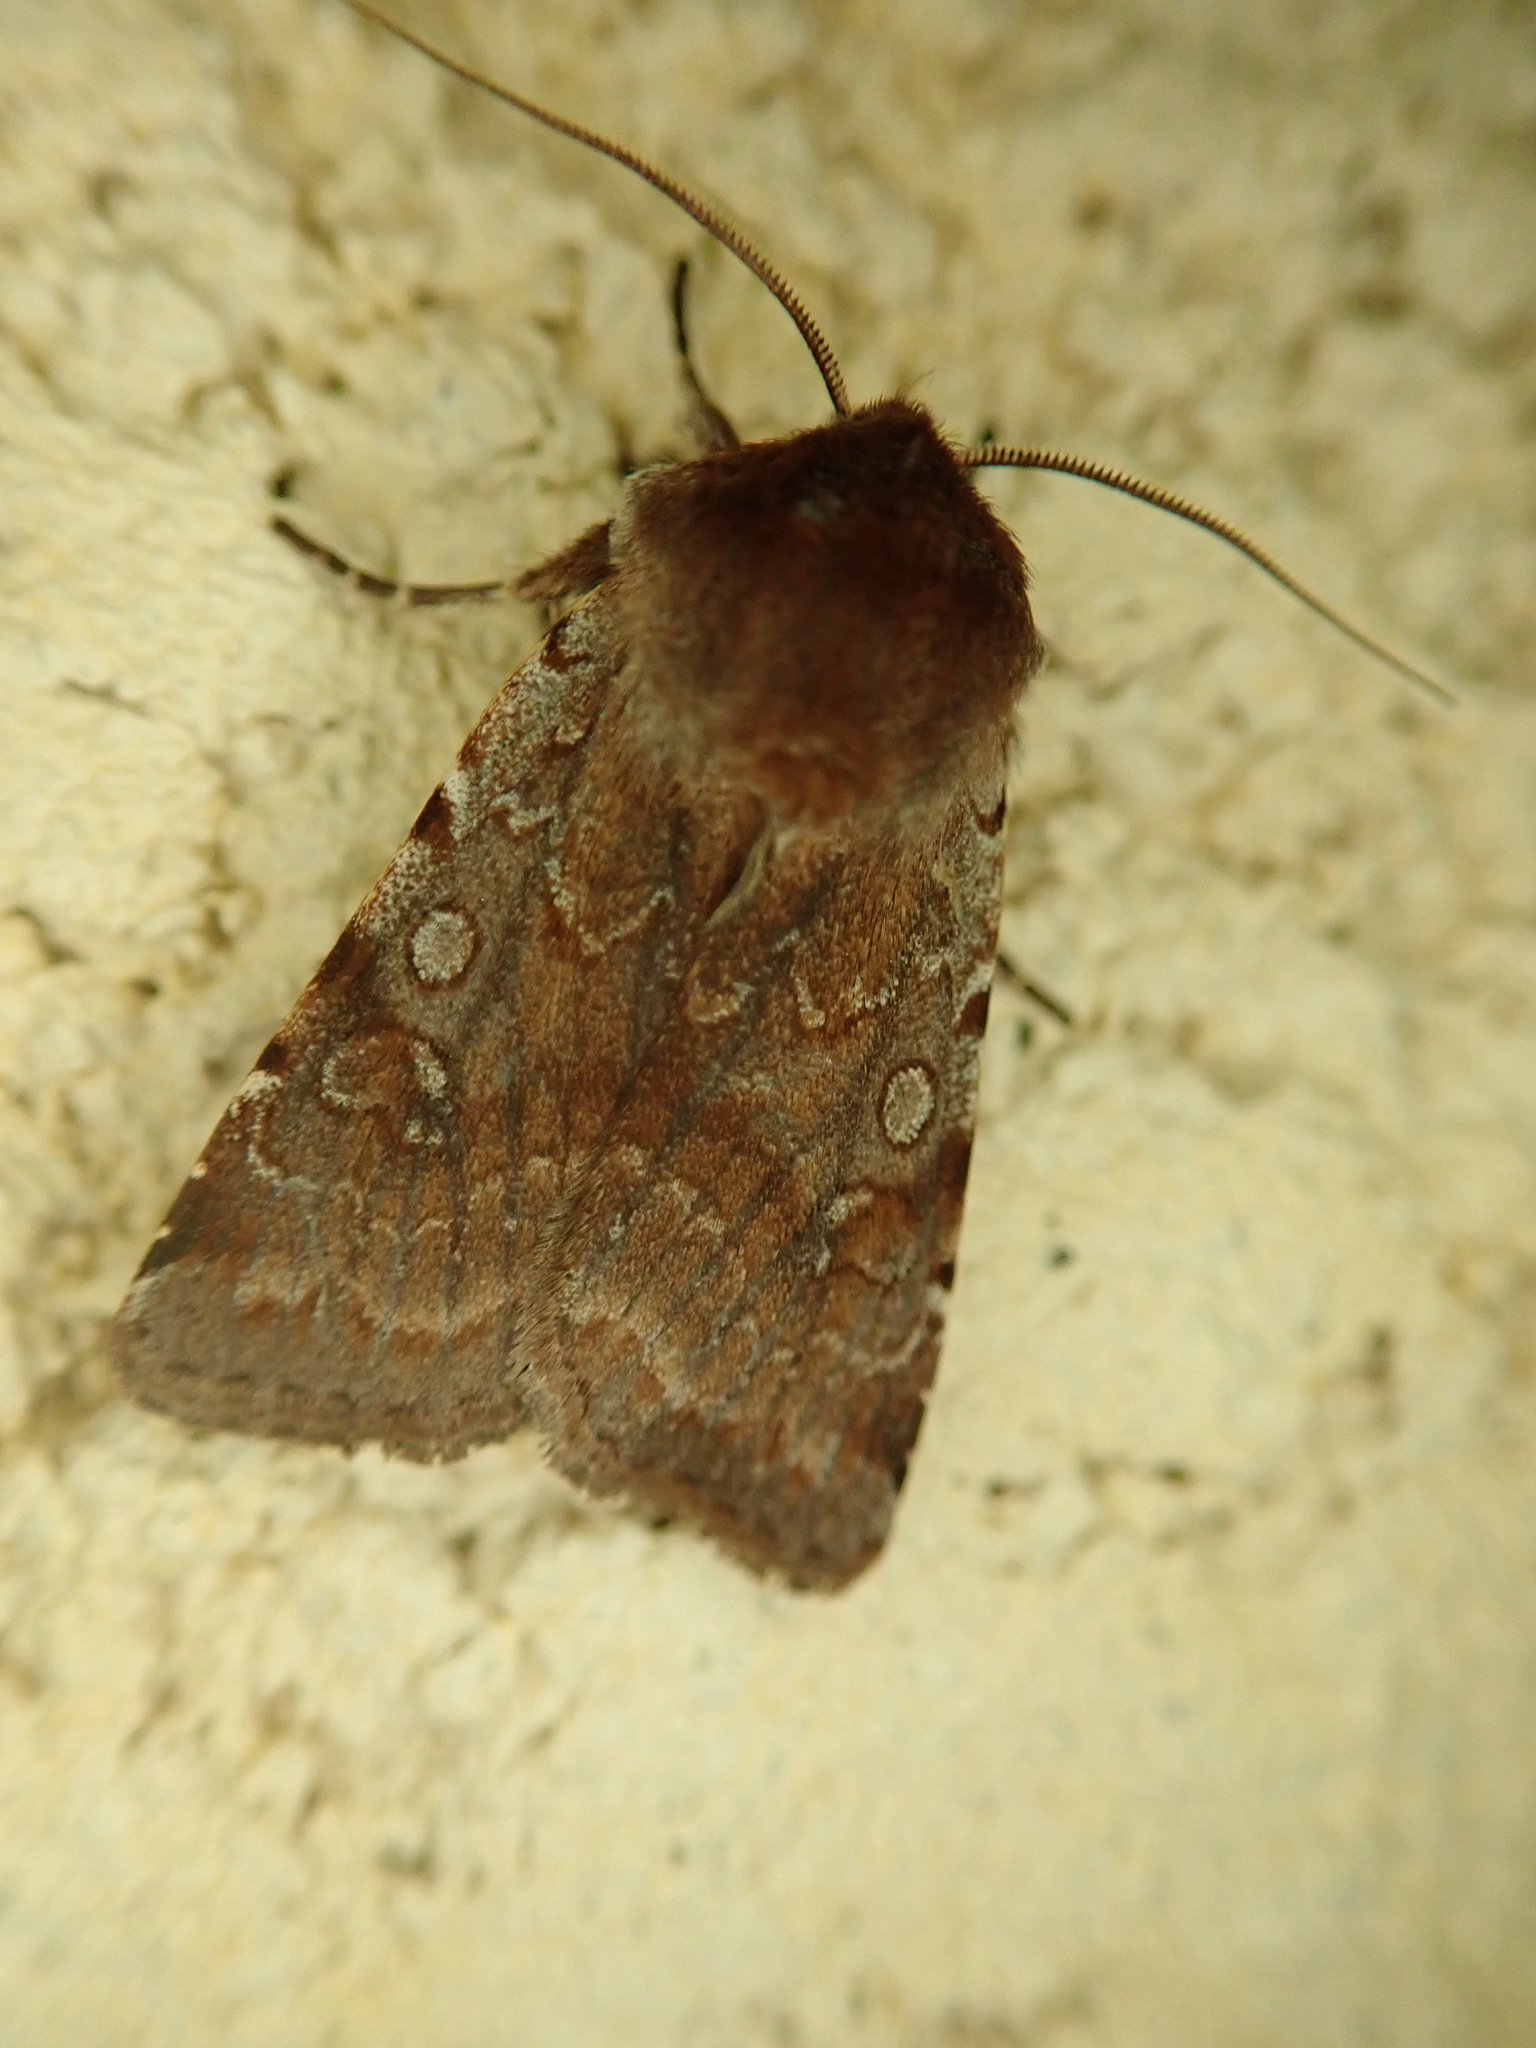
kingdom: Animalia
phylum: Arthropoda
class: Insecta
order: Lepidoptera
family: Noctuidae
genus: Cerastis
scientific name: Cerastis rubricosa
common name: Red chestnut
